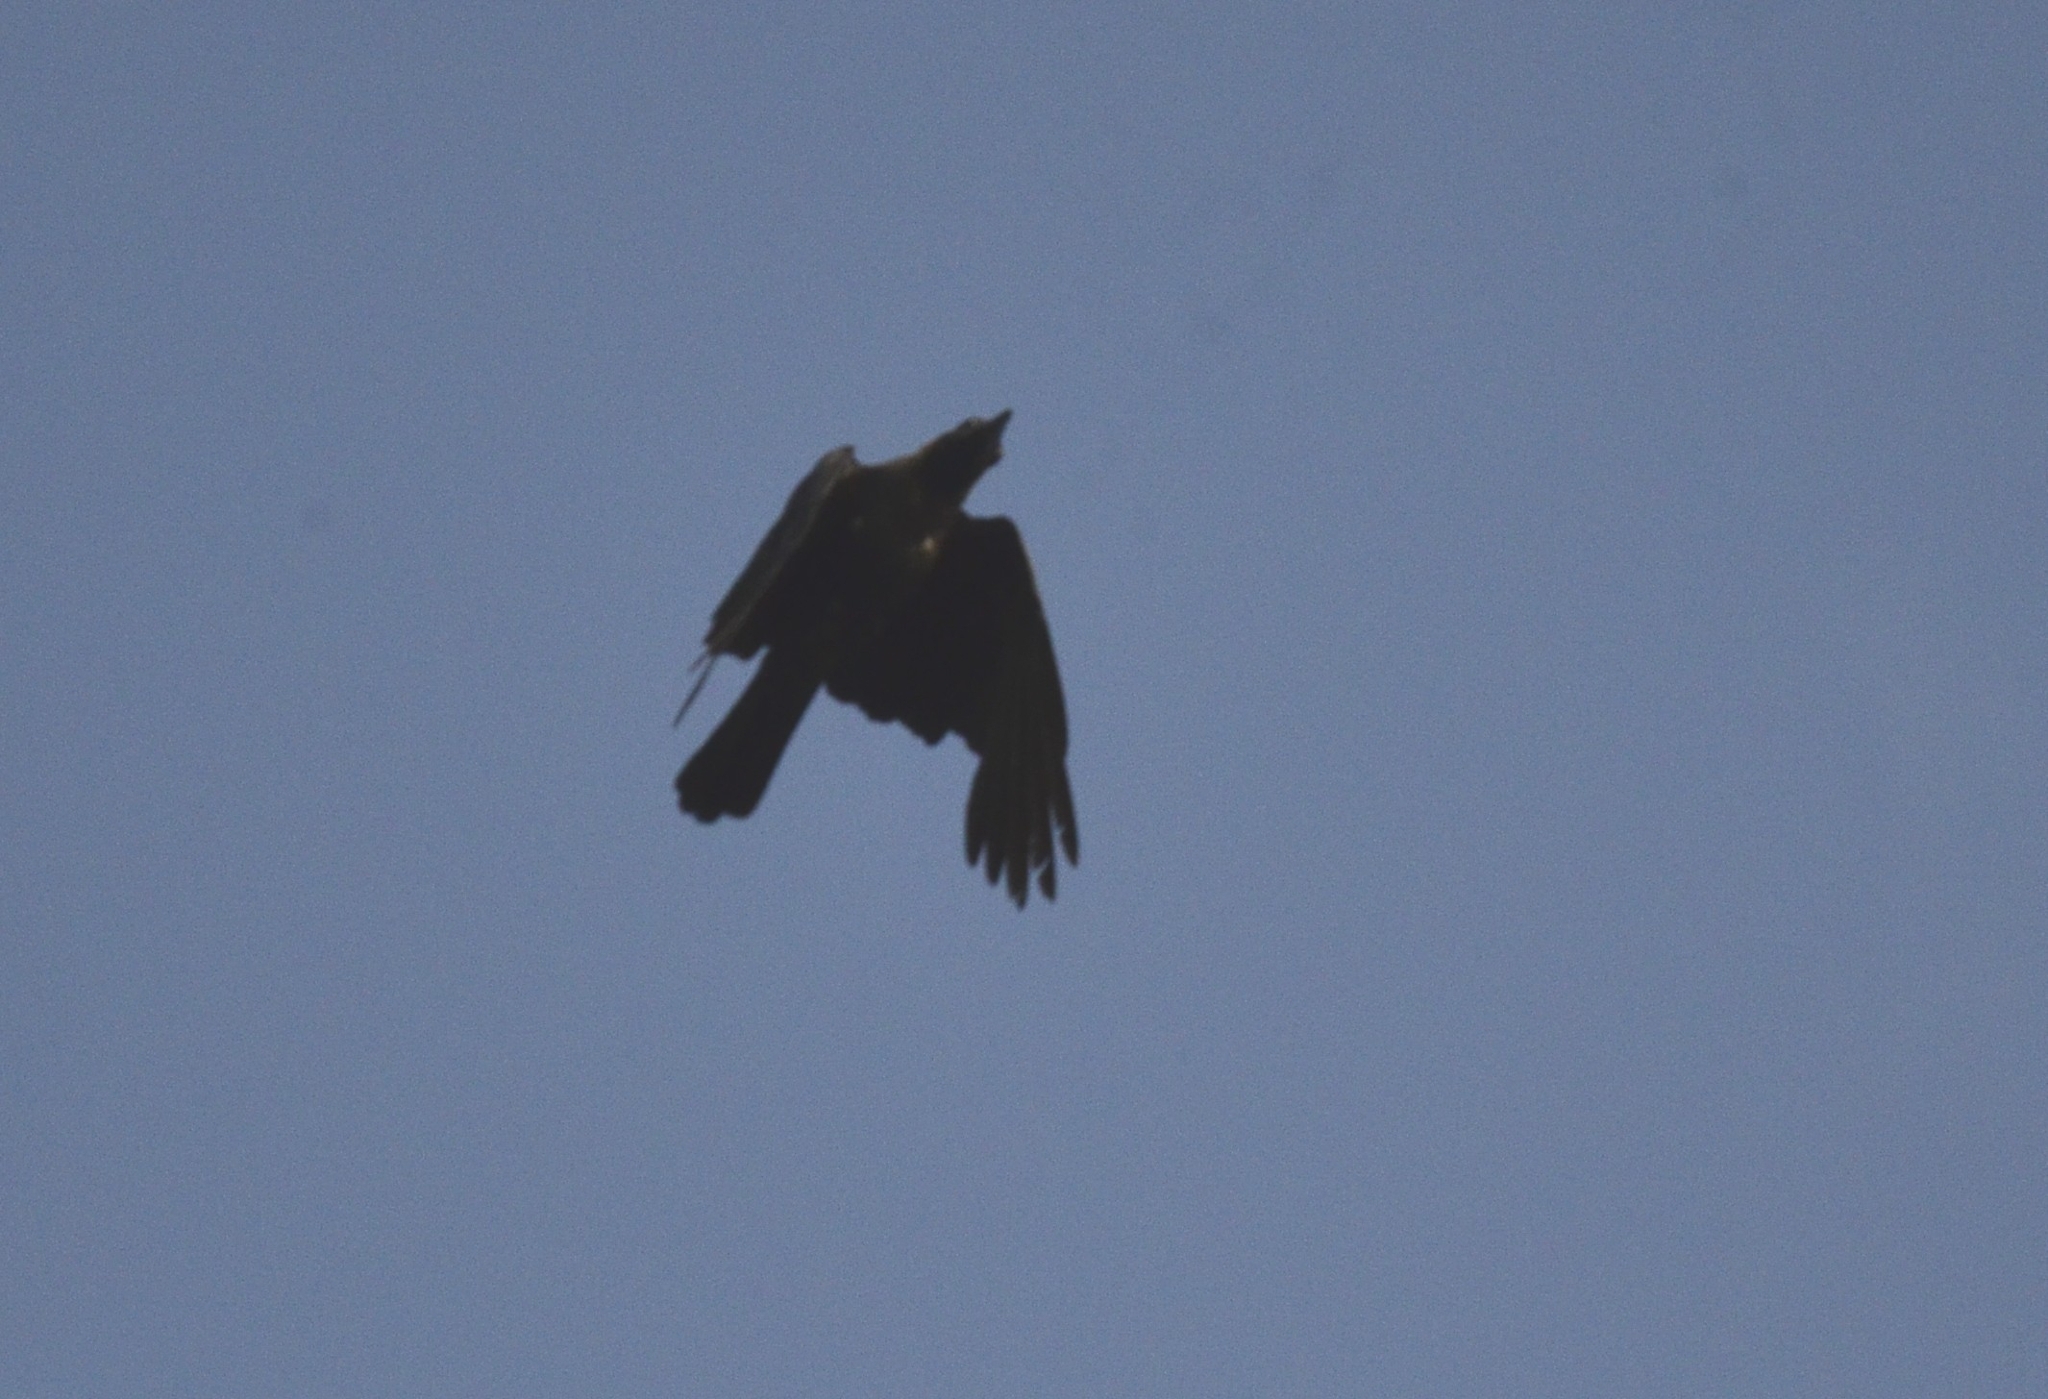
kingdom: Animalia
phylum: Chordata
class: Aves
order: Passeriformes
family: Corvidae
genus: Corvus
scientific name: Corvus splendens
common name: House crow
